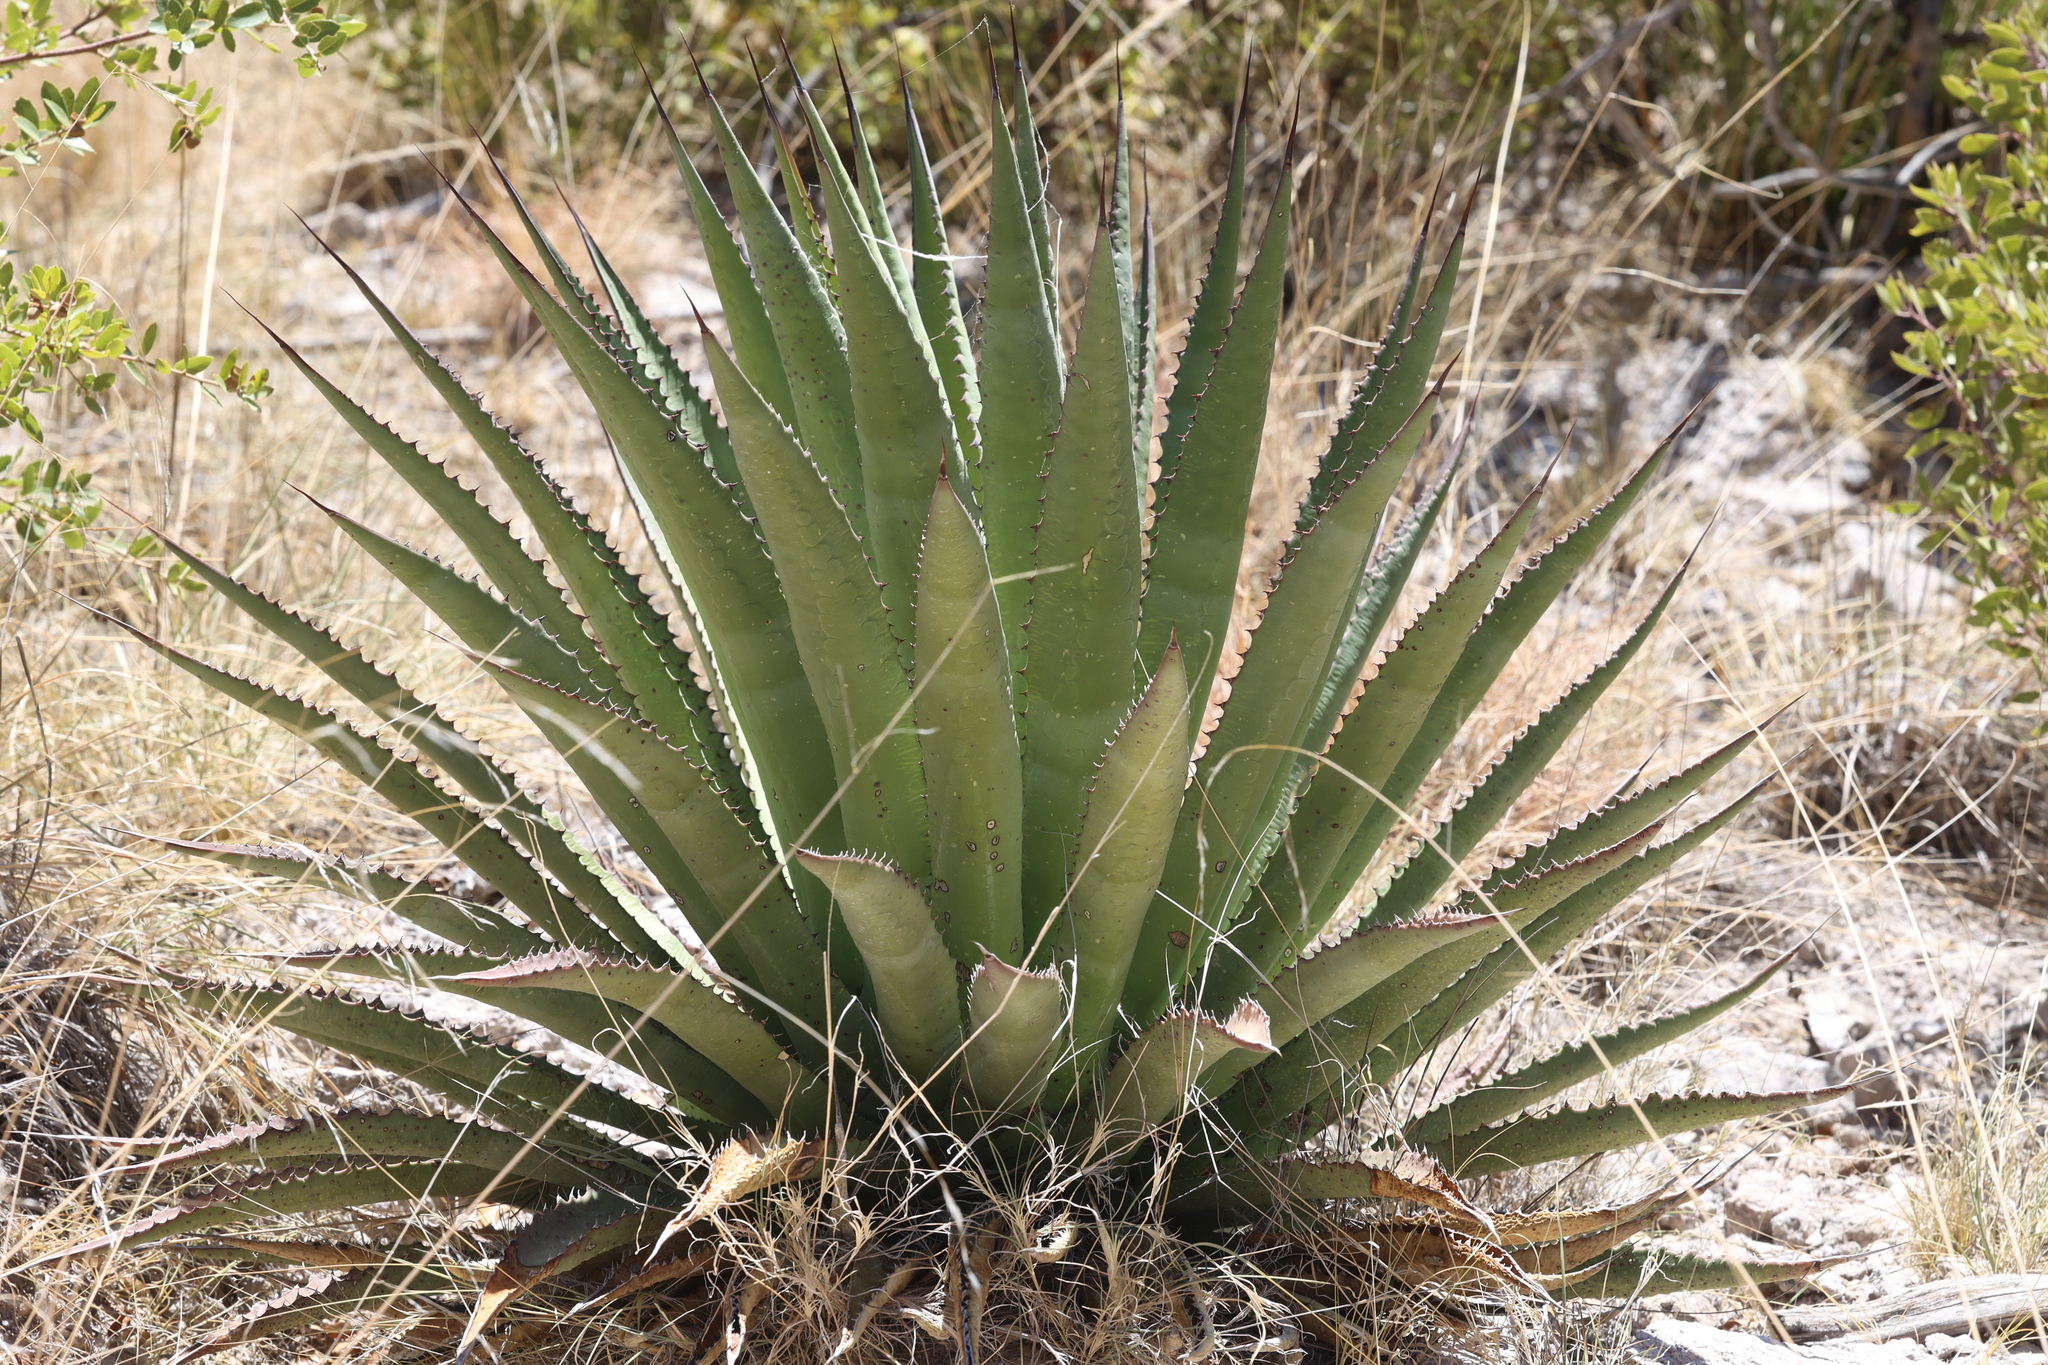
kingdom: Plantae
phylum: Tracheophyta
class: Liliopsida
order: Asparagales
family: Asparagaceae
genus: Agave
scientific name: Agave palmeri
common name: Palmer agave
